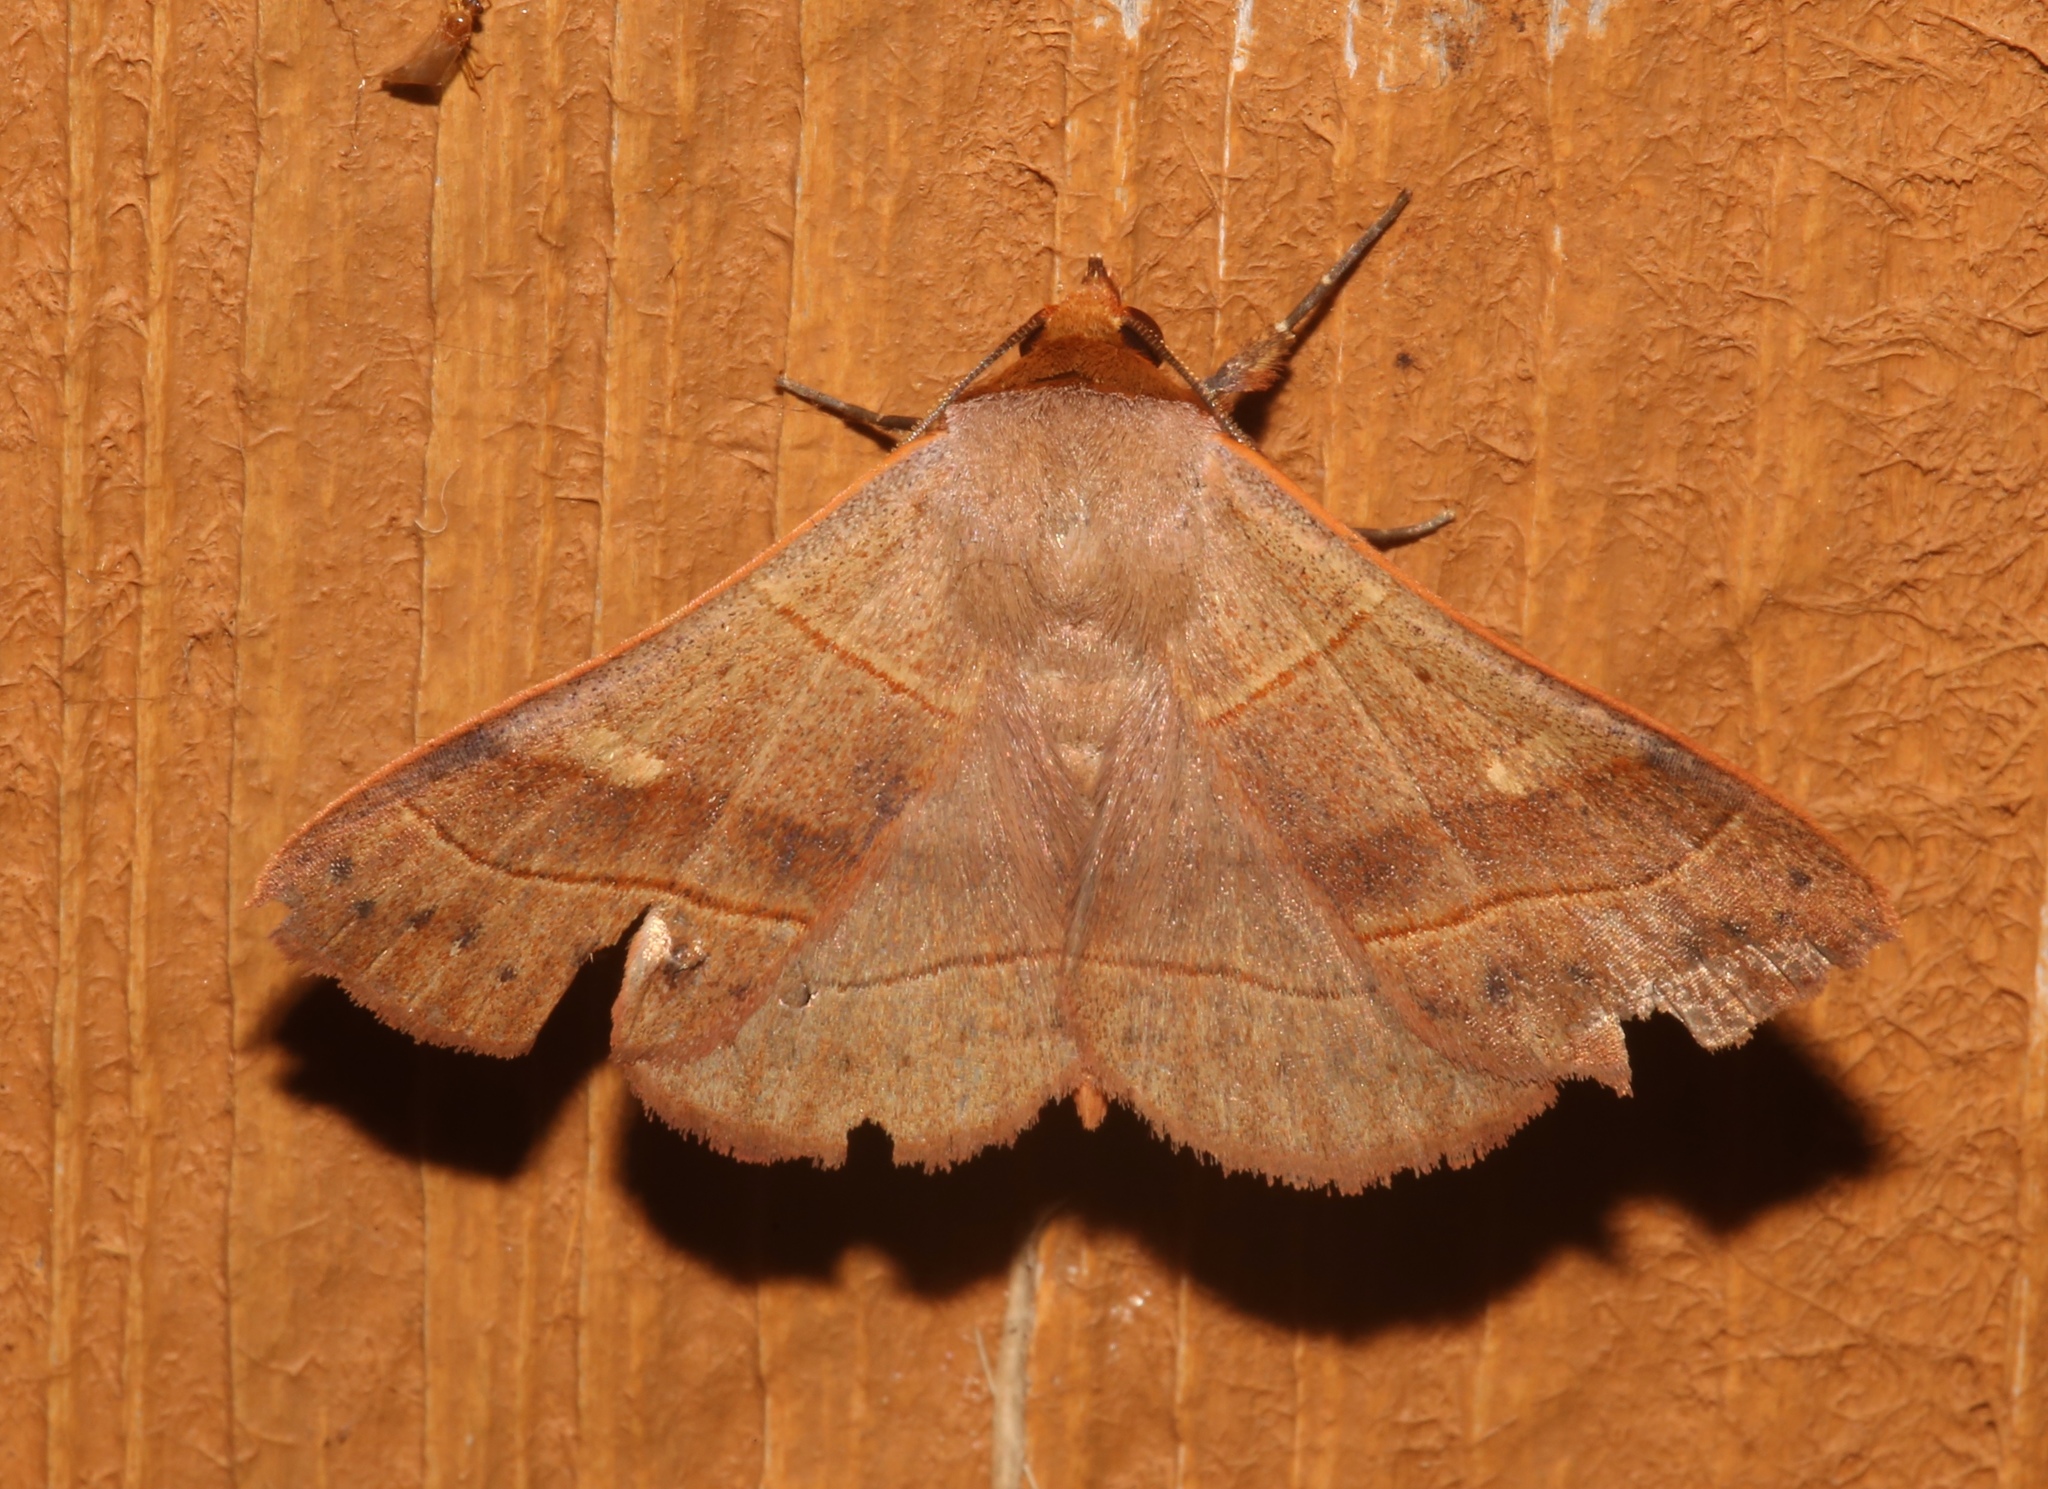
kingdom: Animalia
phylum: Arthropoda
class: Insecta
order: Lepidoptera
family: Erebidae
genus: Panopoda
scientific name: Panopoda rufimargo
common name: Red-lined panopoda moth
